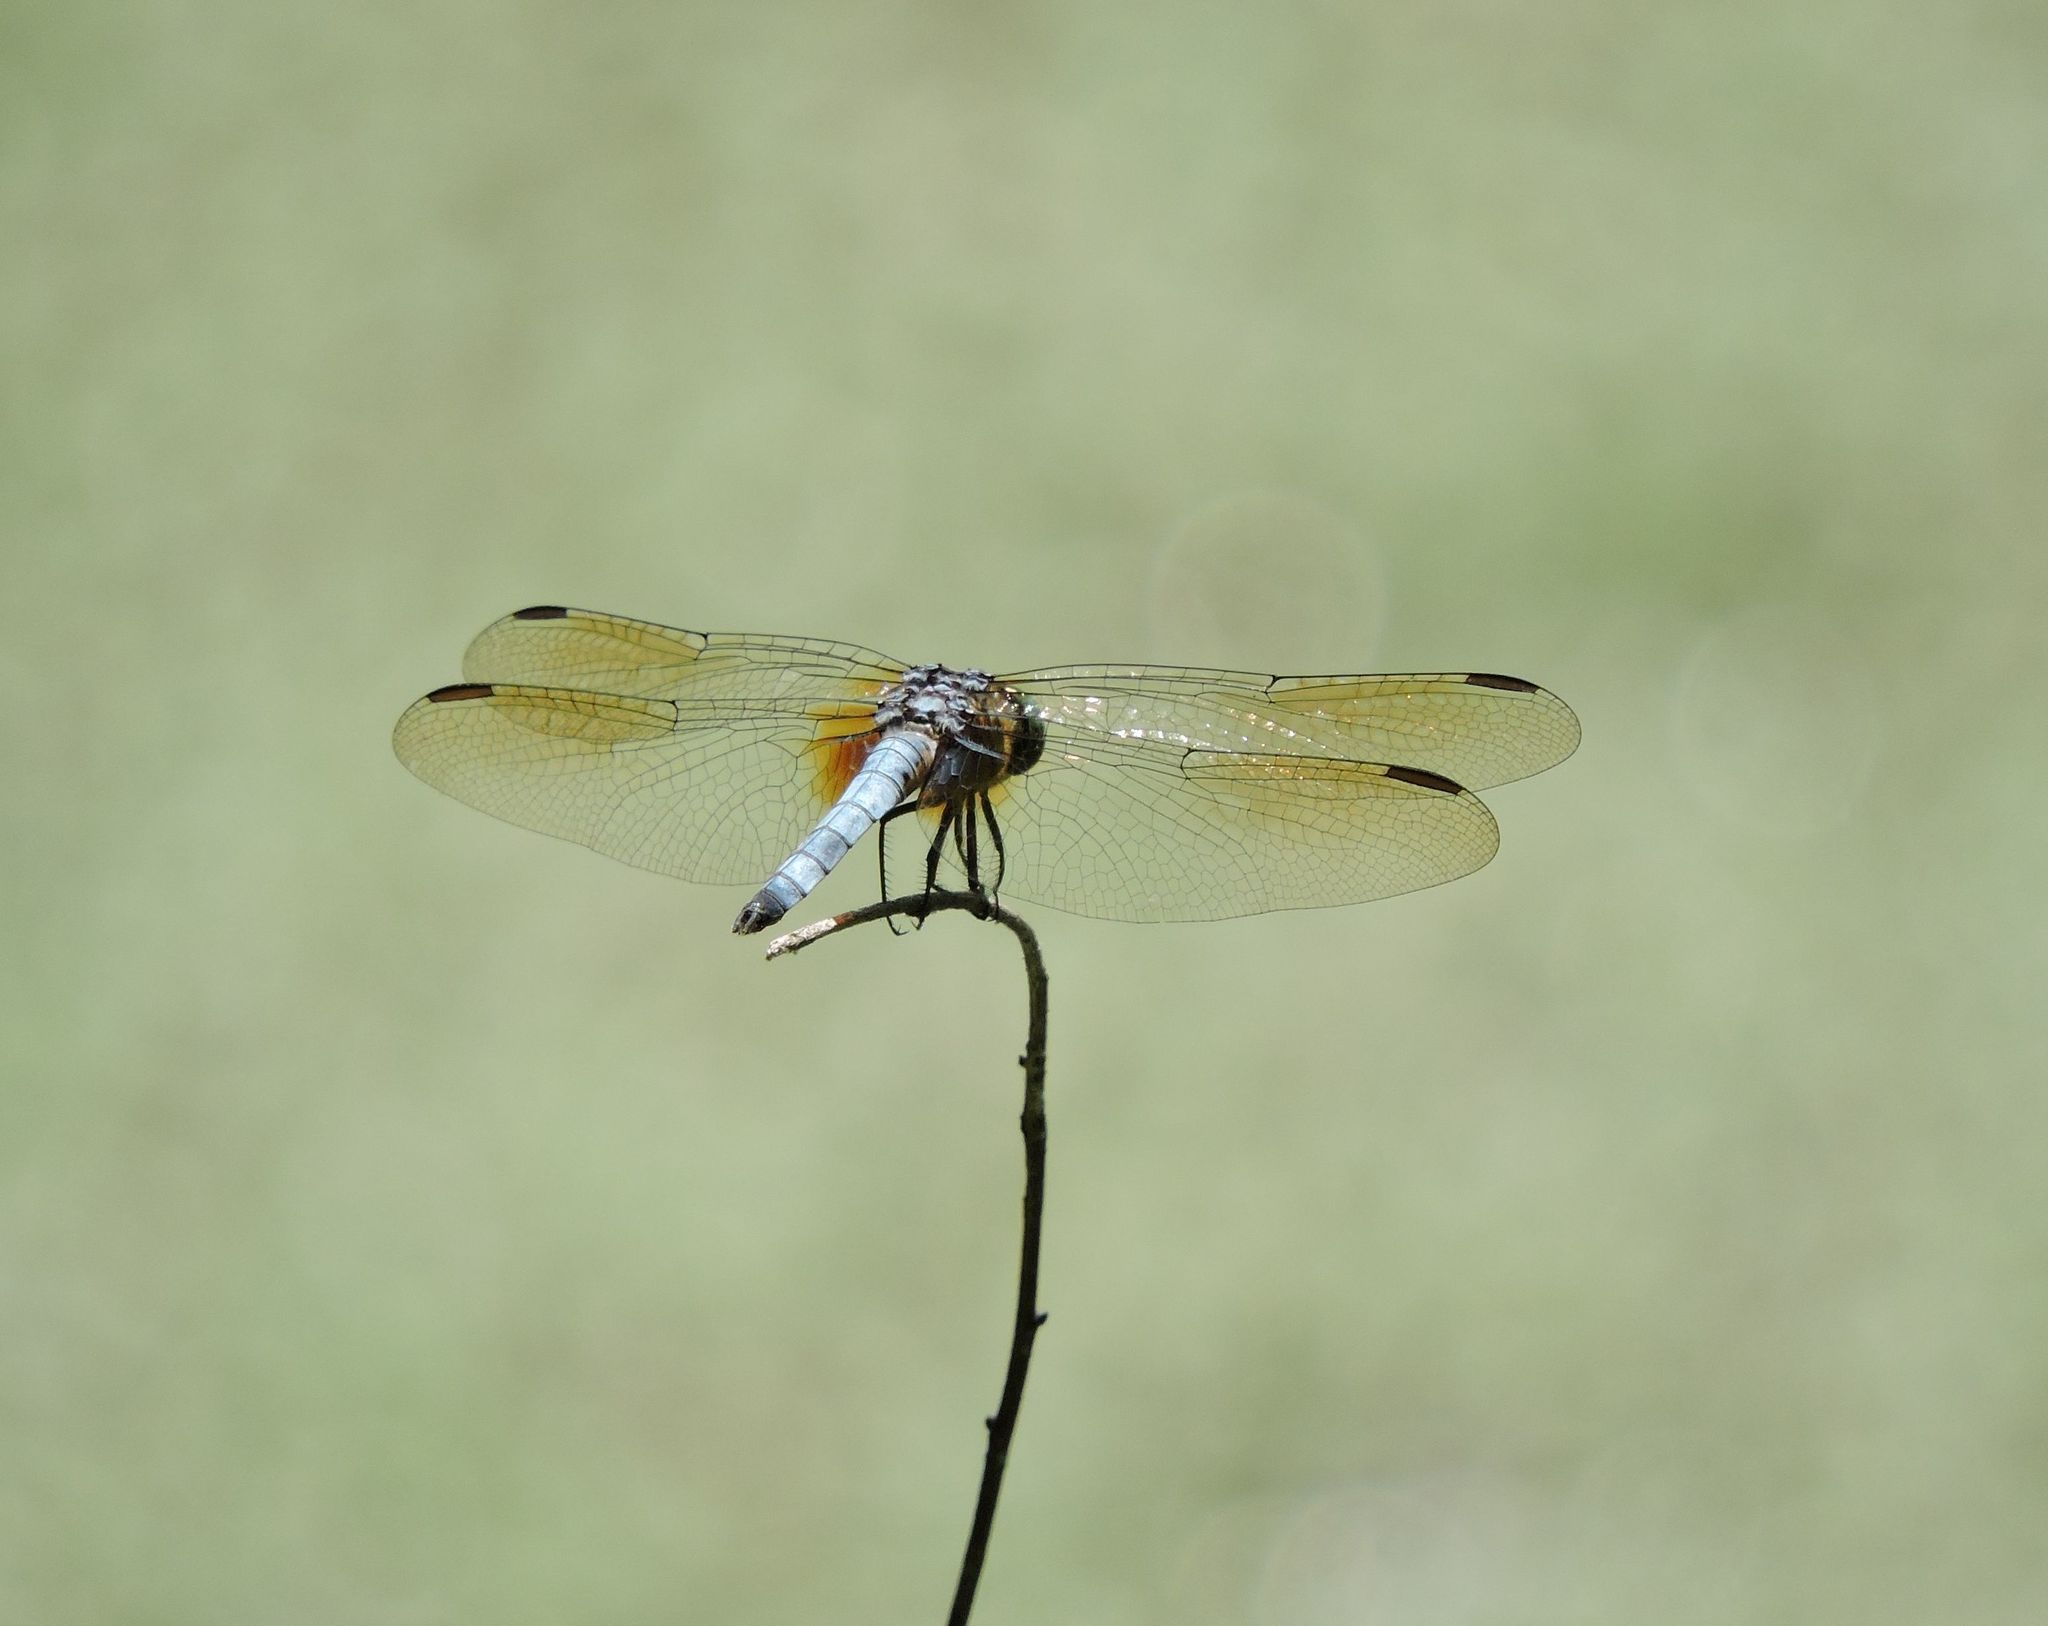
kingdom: Animalia
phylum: Arthropoda
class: Insecta
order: Odonata
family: Libellulidae
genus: Pachydiplax
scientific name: Pachydiplax longipennis
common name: Blue dasher
